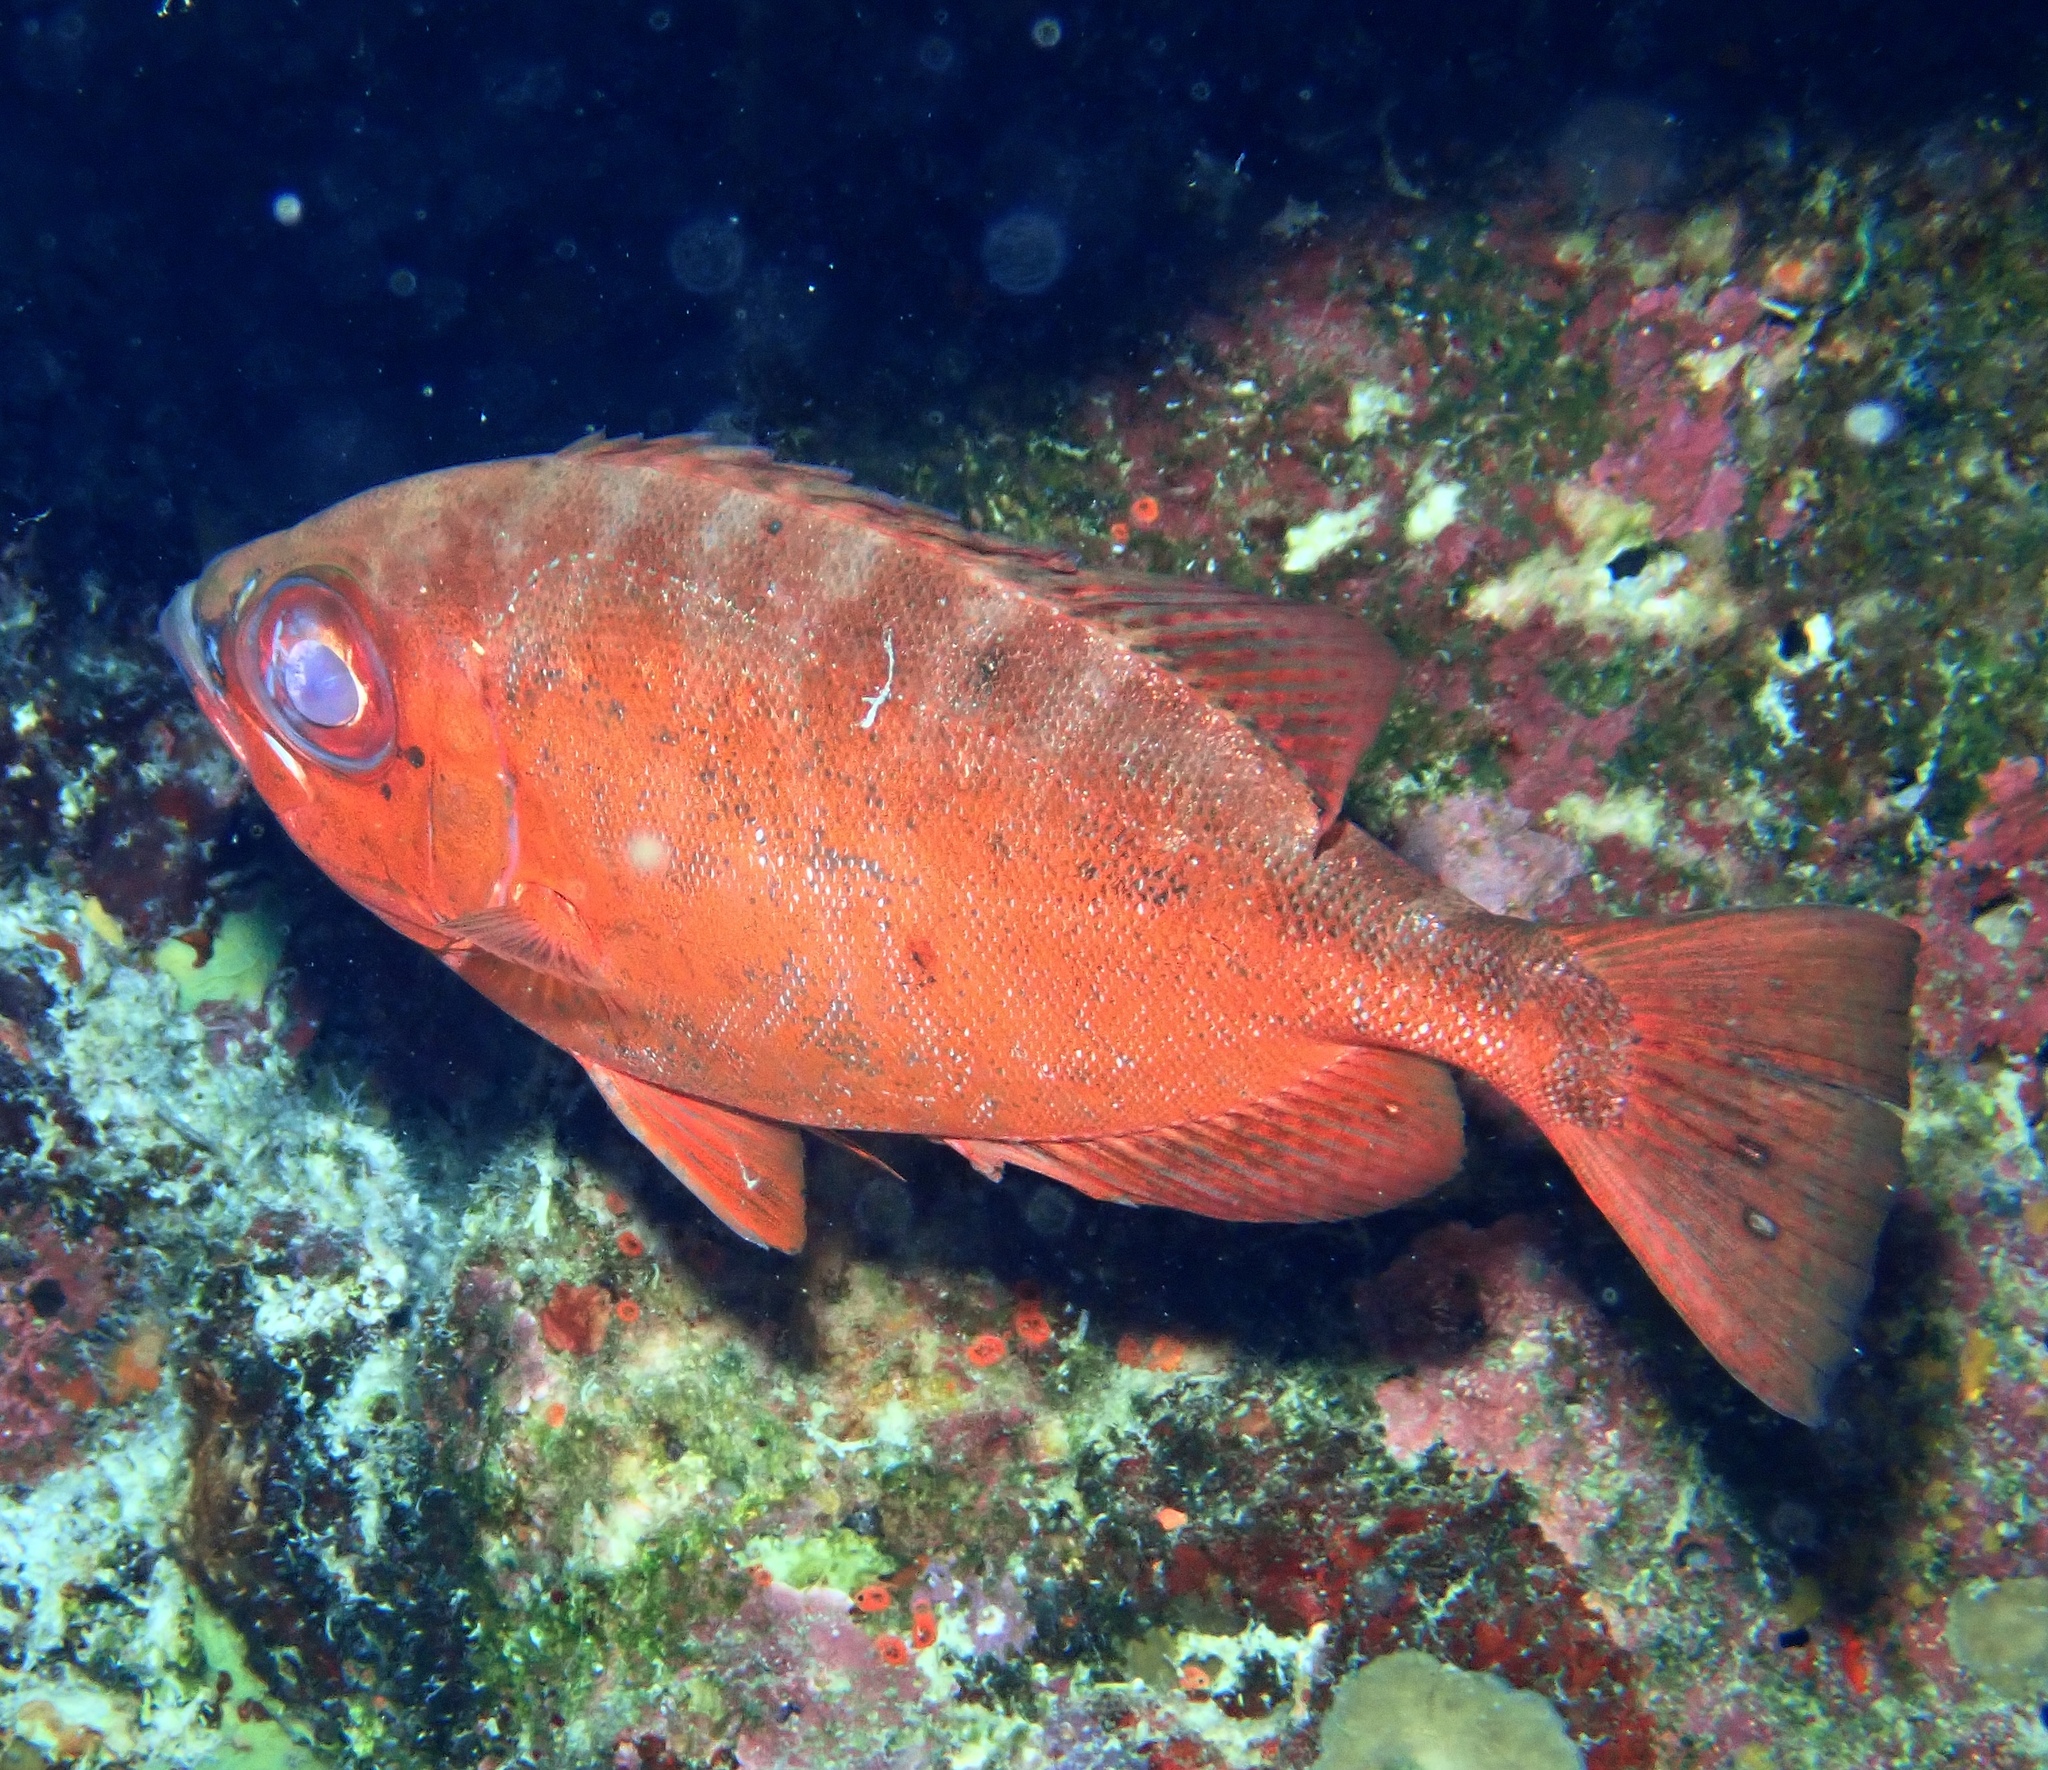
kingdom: Animalia
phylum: Chordata
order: Perciformes
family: Priacanthidae
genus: Heteropriacanthus
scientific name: Heteropriacanthus cruentatus
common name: Glasseye
